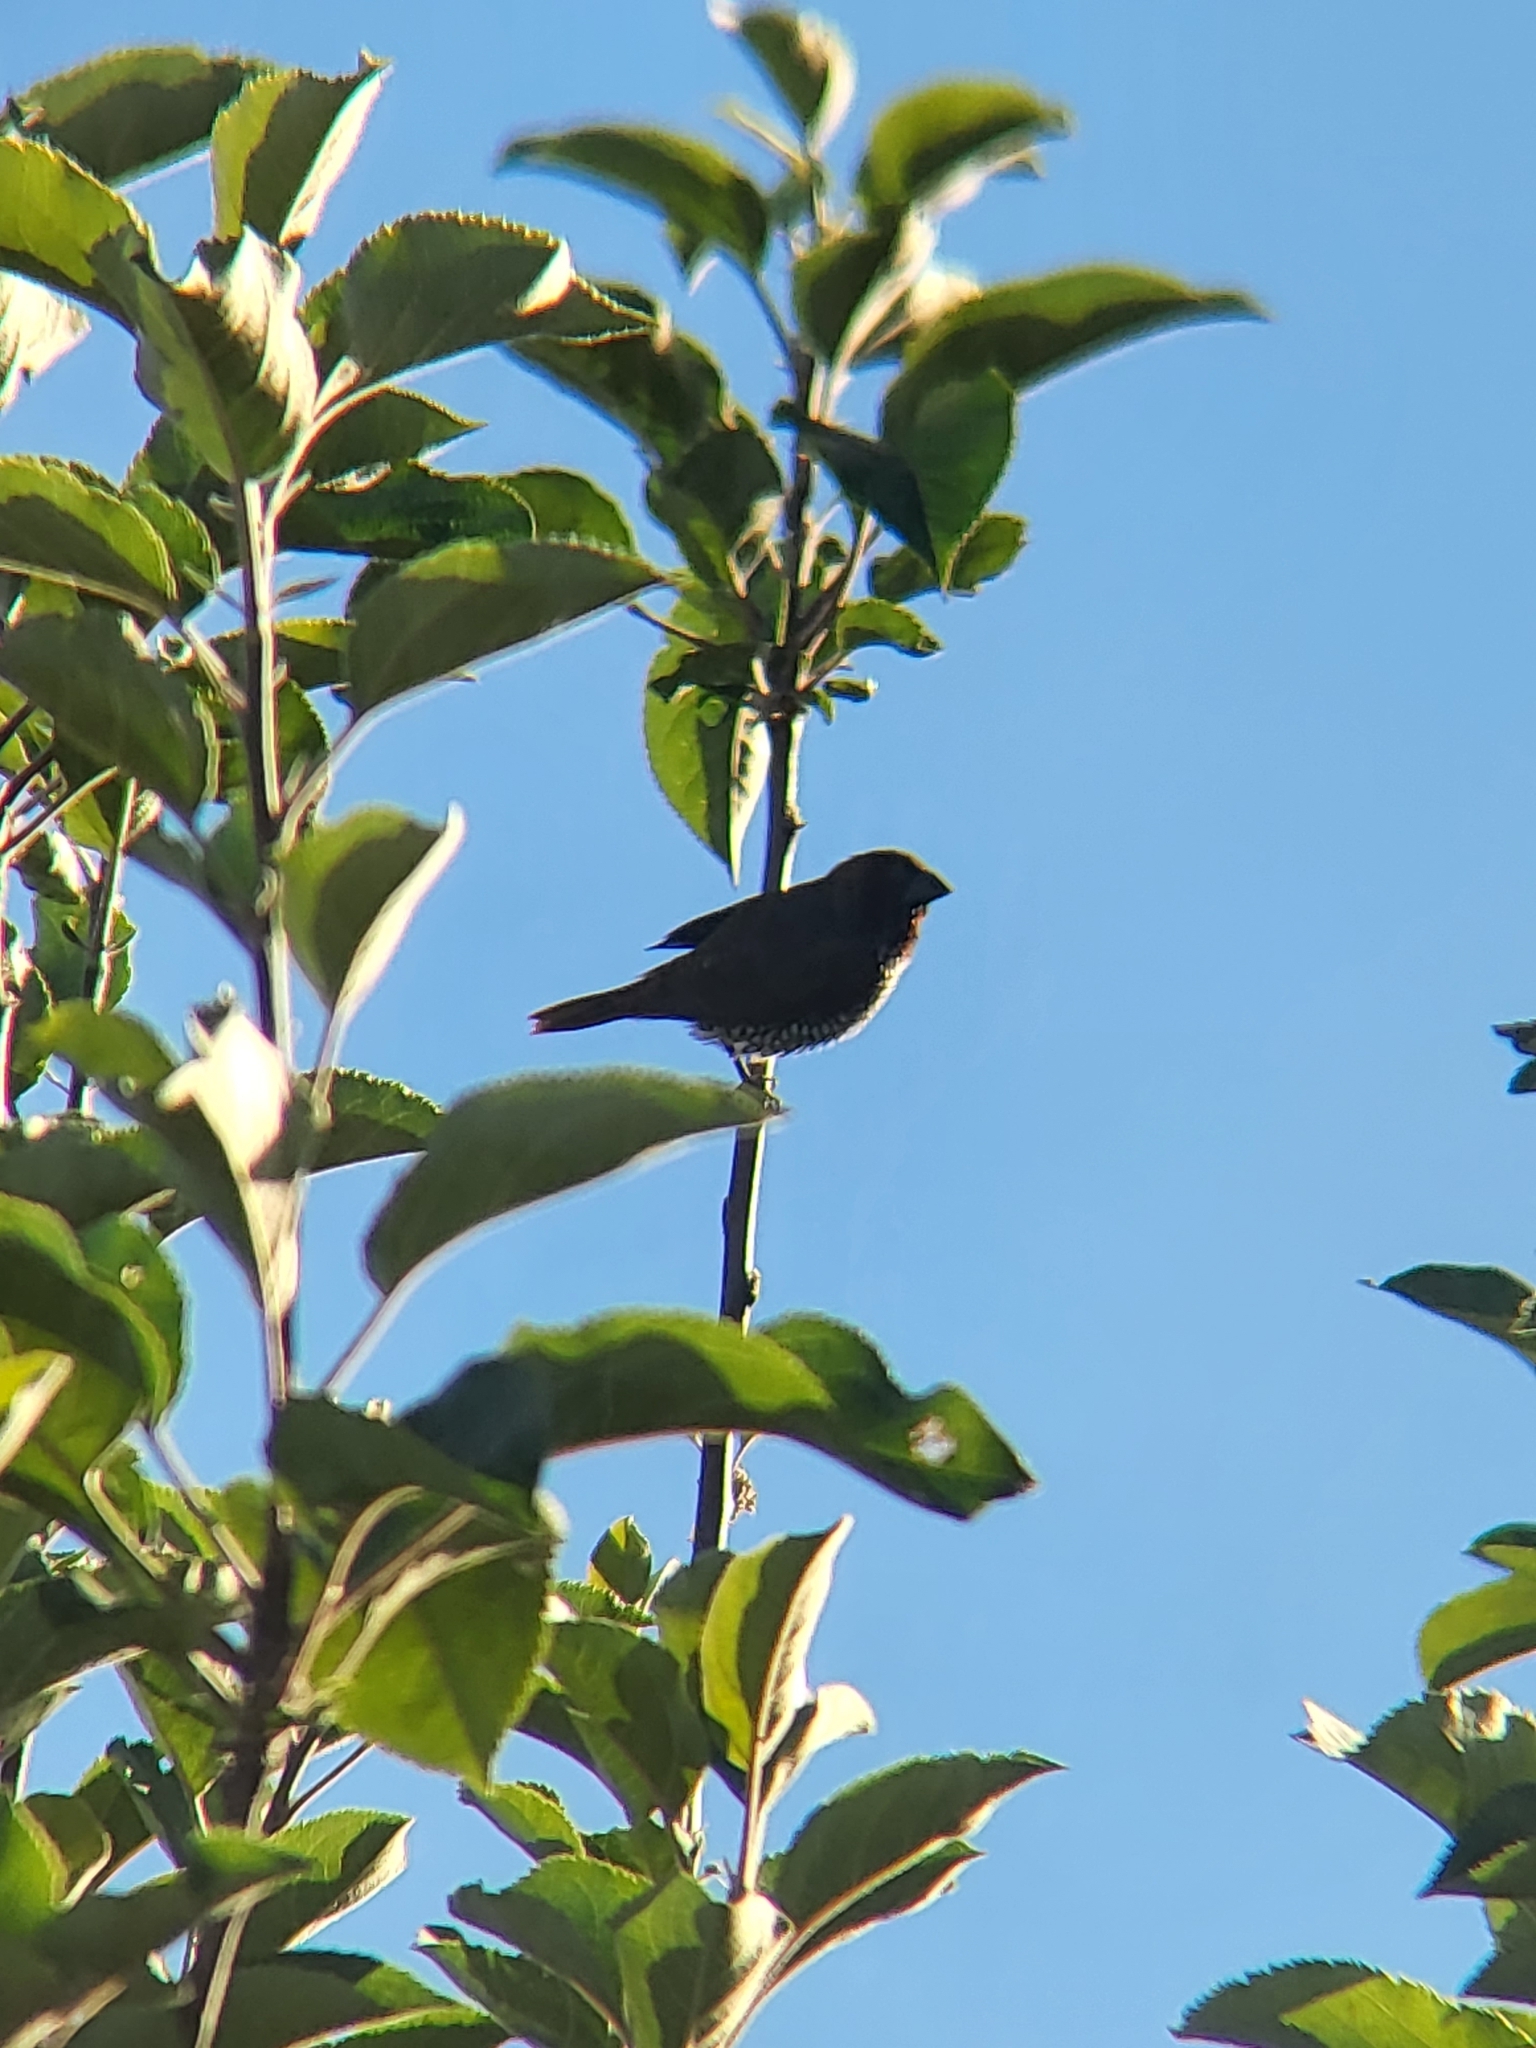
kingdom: Animalia
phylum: Chordata
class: Aves
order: Passeriformes
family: Estrildidae
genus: Lonchura
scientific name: Lonchura punctulata
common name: Scaly-breasted munia
